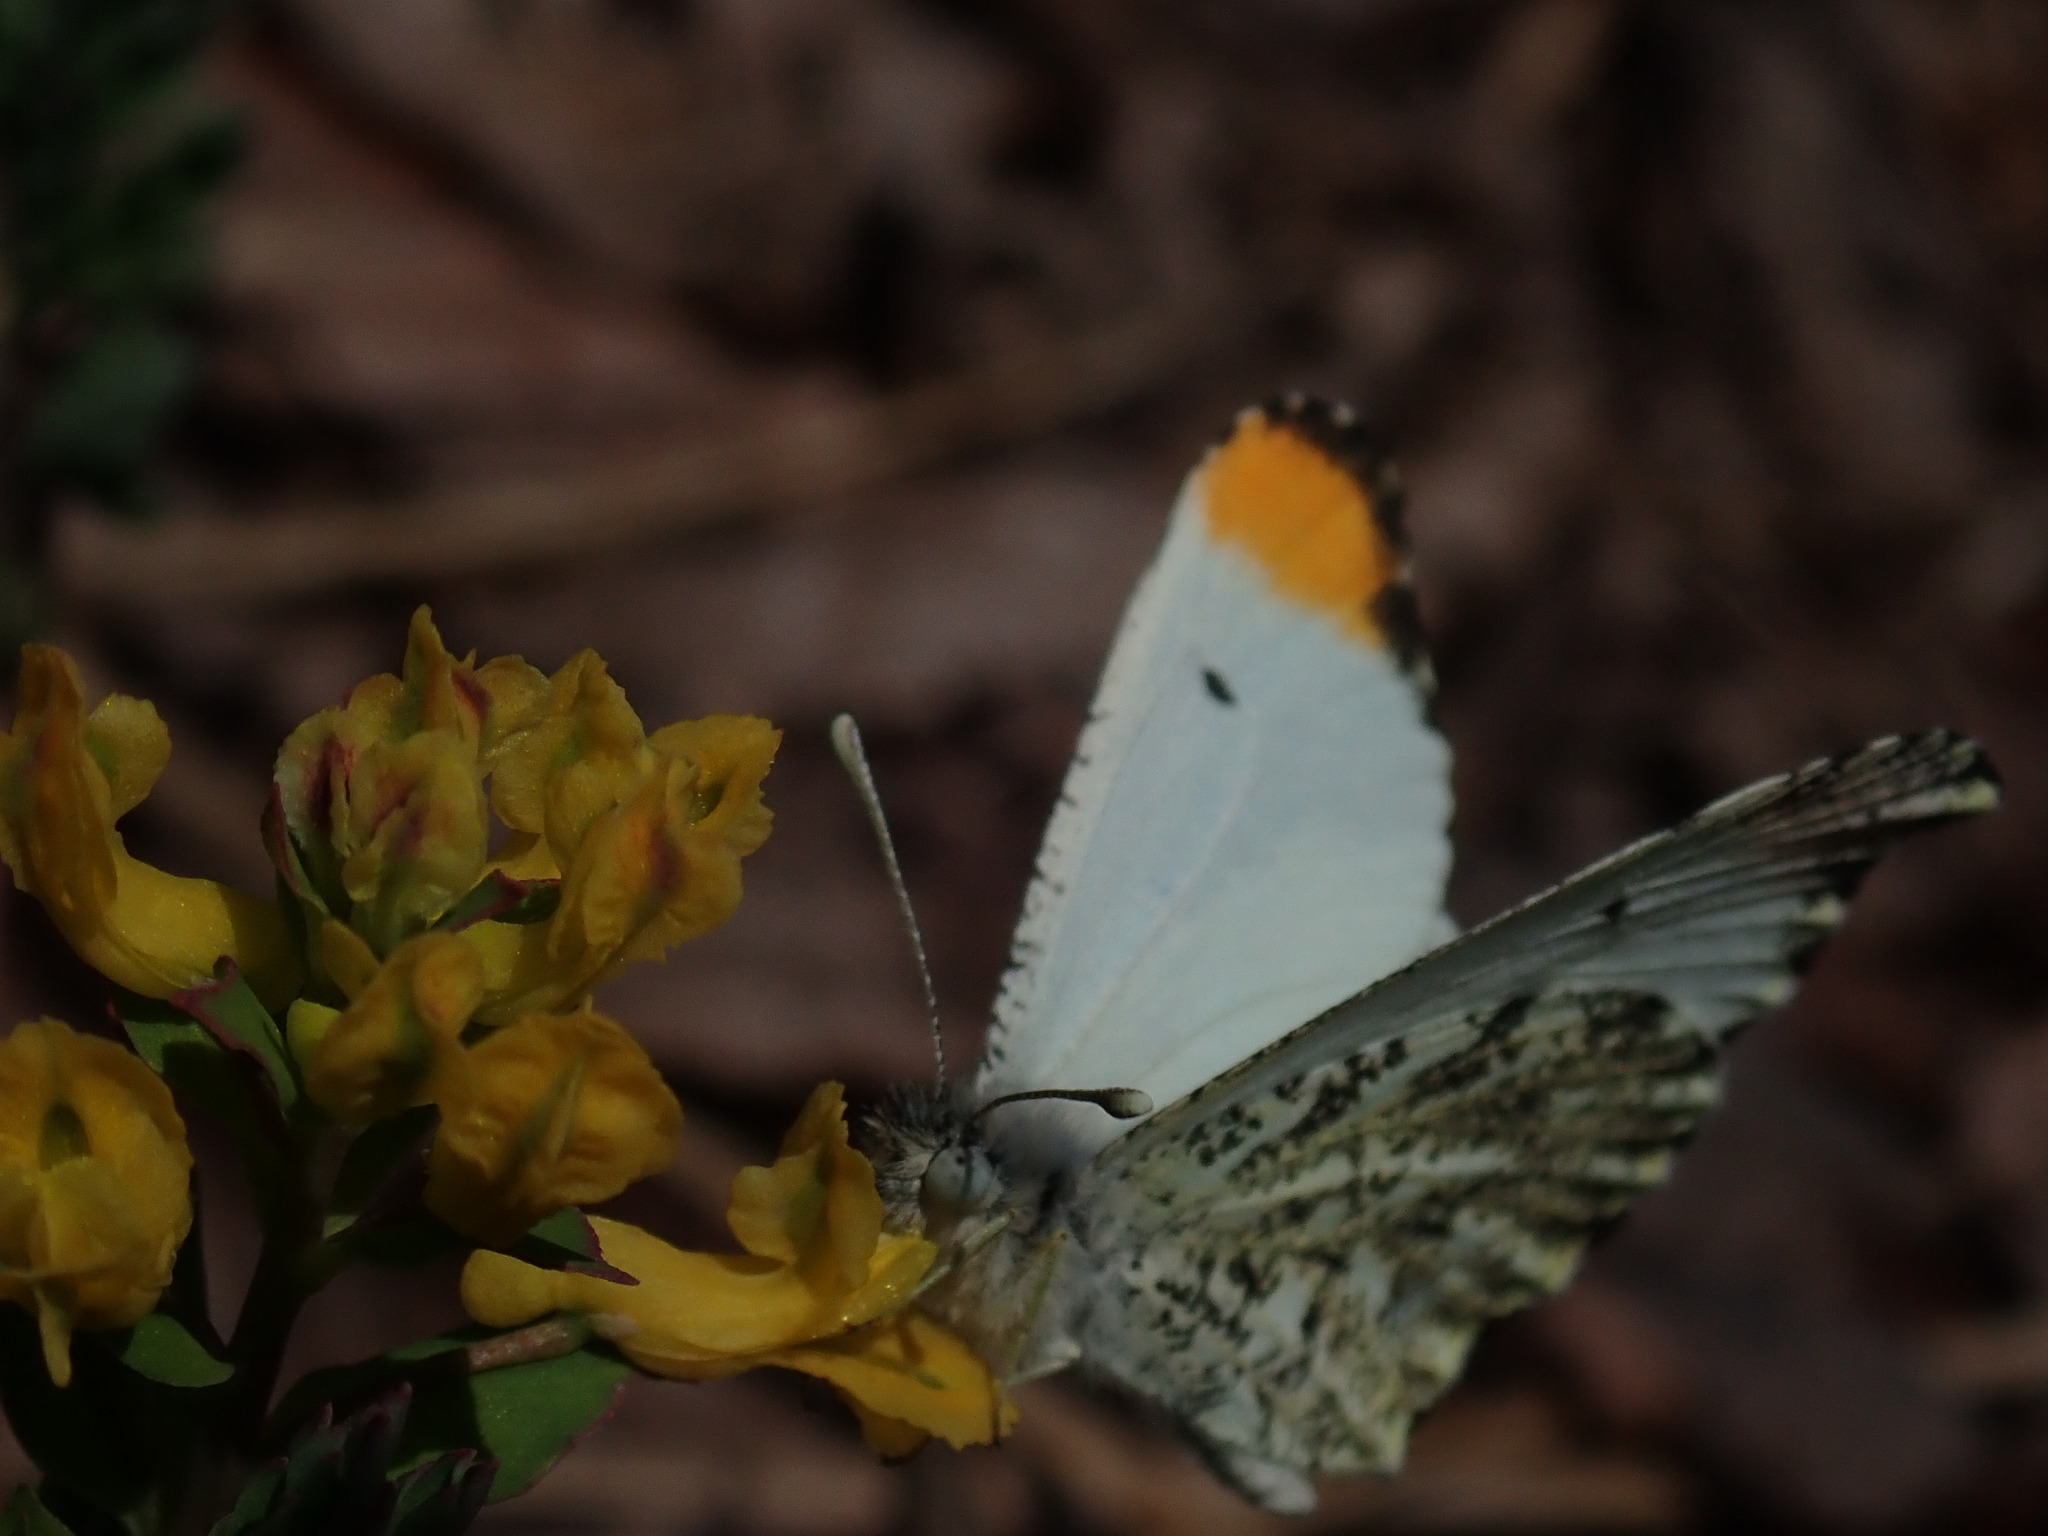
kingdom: Animalia
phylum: Arthropoda
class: Insecta
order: Lepidoptera
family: Pieridae
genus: Anthocharis
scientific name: Anthocharis midea
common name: Falcate orangetip
